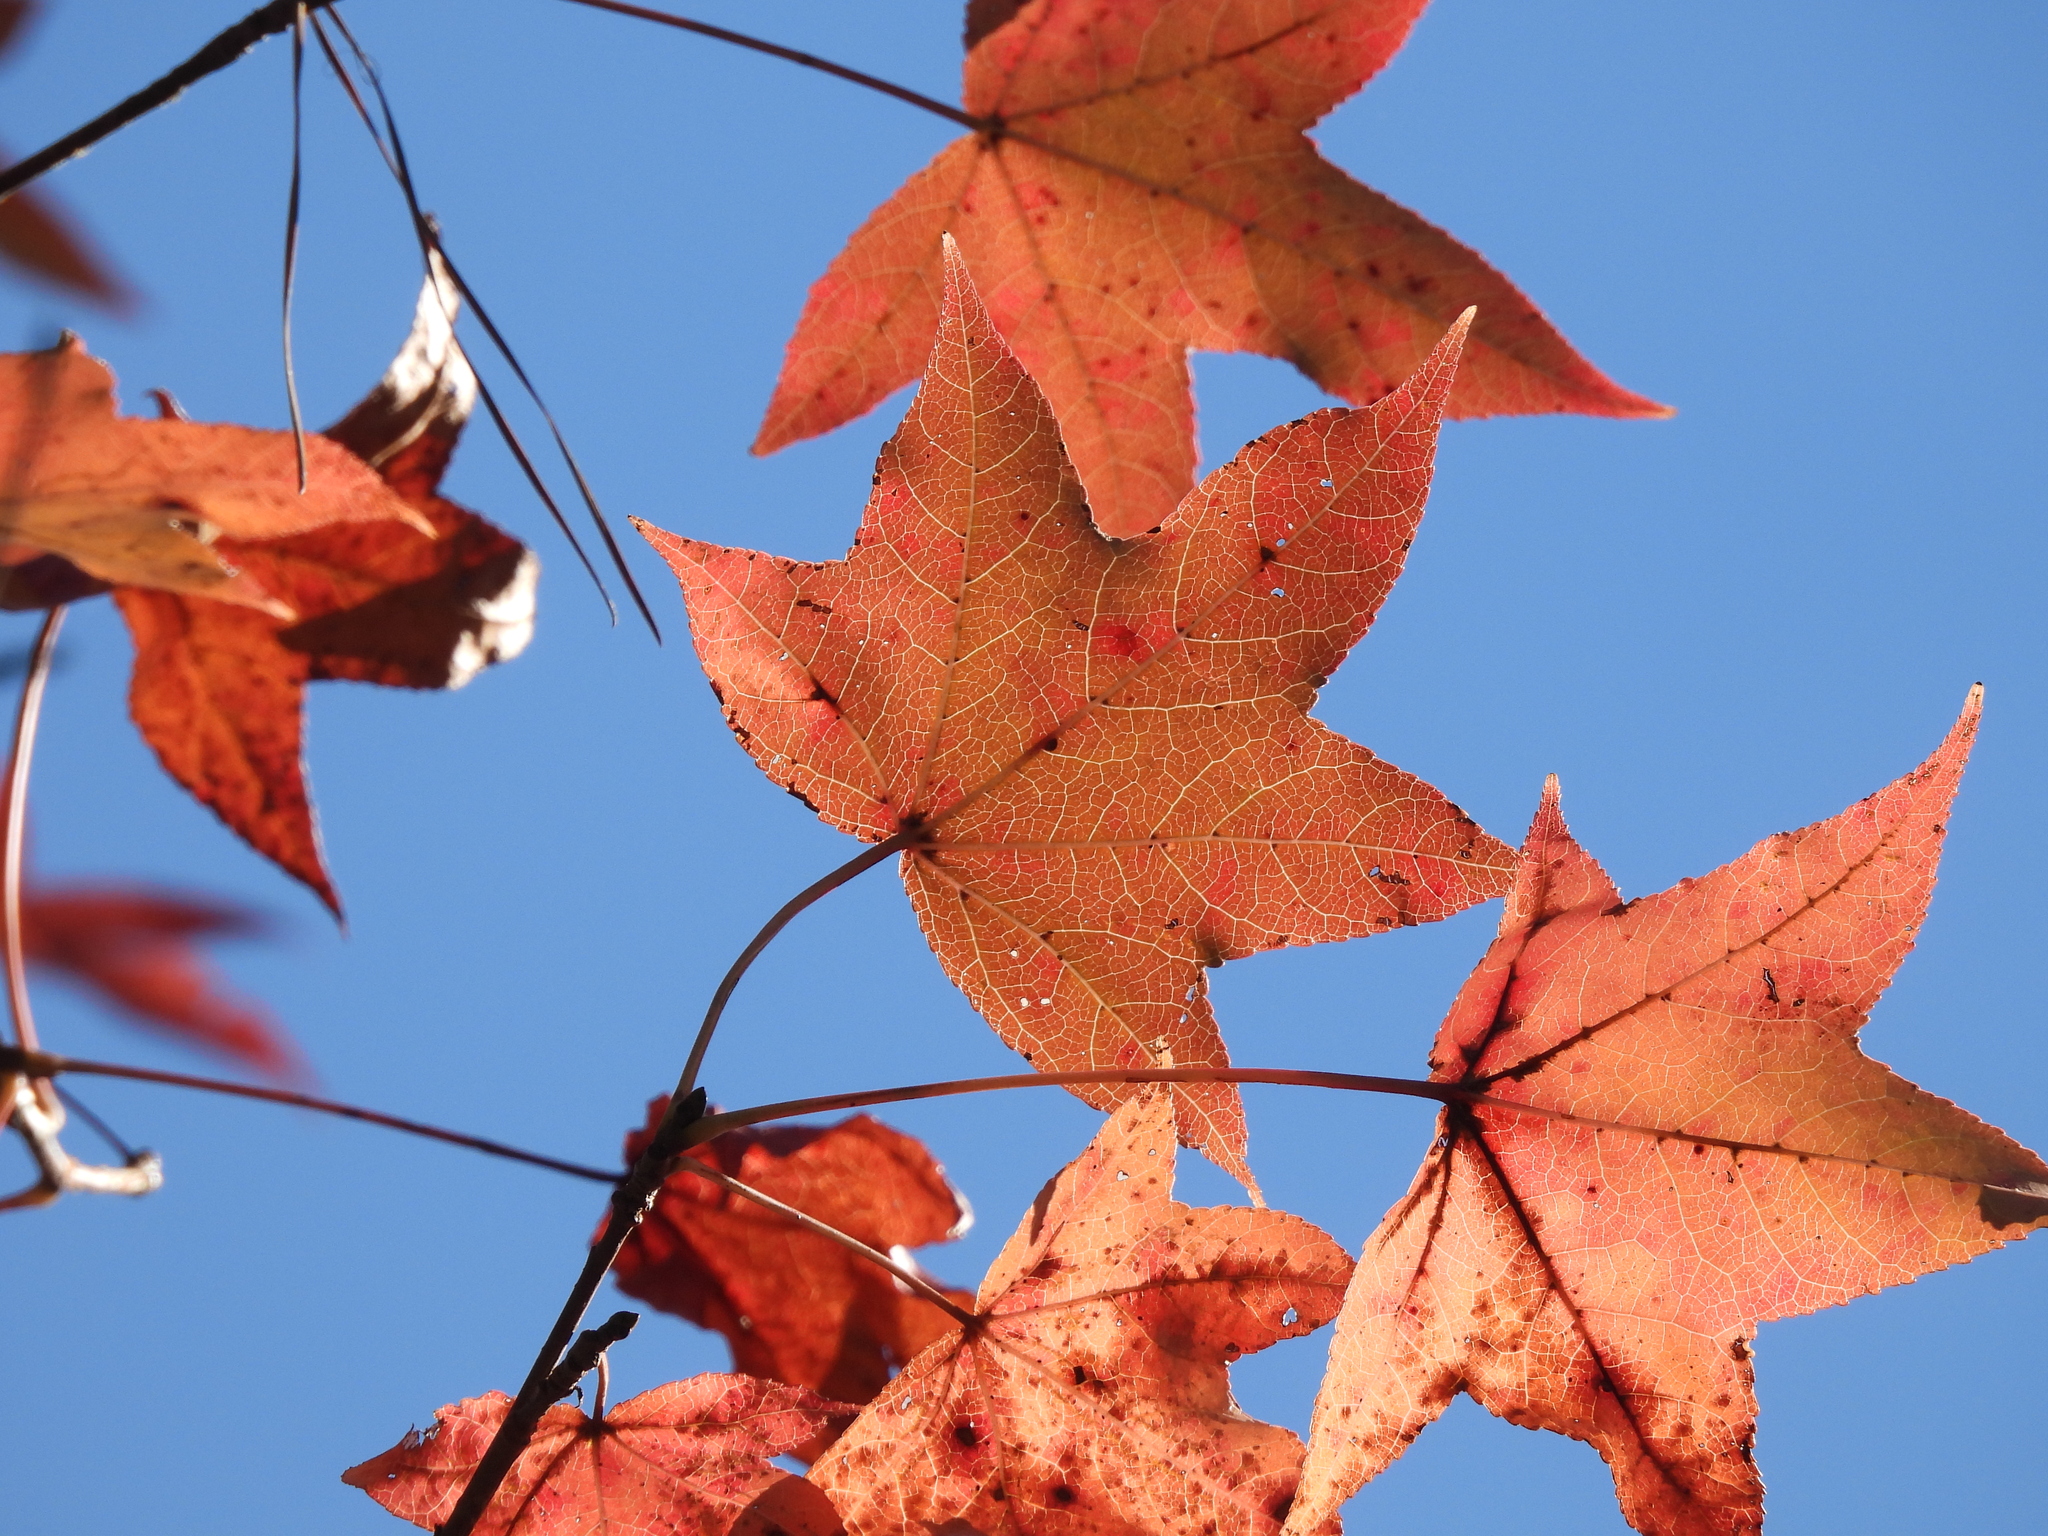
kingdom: Plantae
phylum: Tracheophyta
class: Magnoliopsida
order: Saxifragales
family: Altingiaceae
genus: Liquidambar
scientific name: Liquidambar styraciflua
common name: Sweet gum
